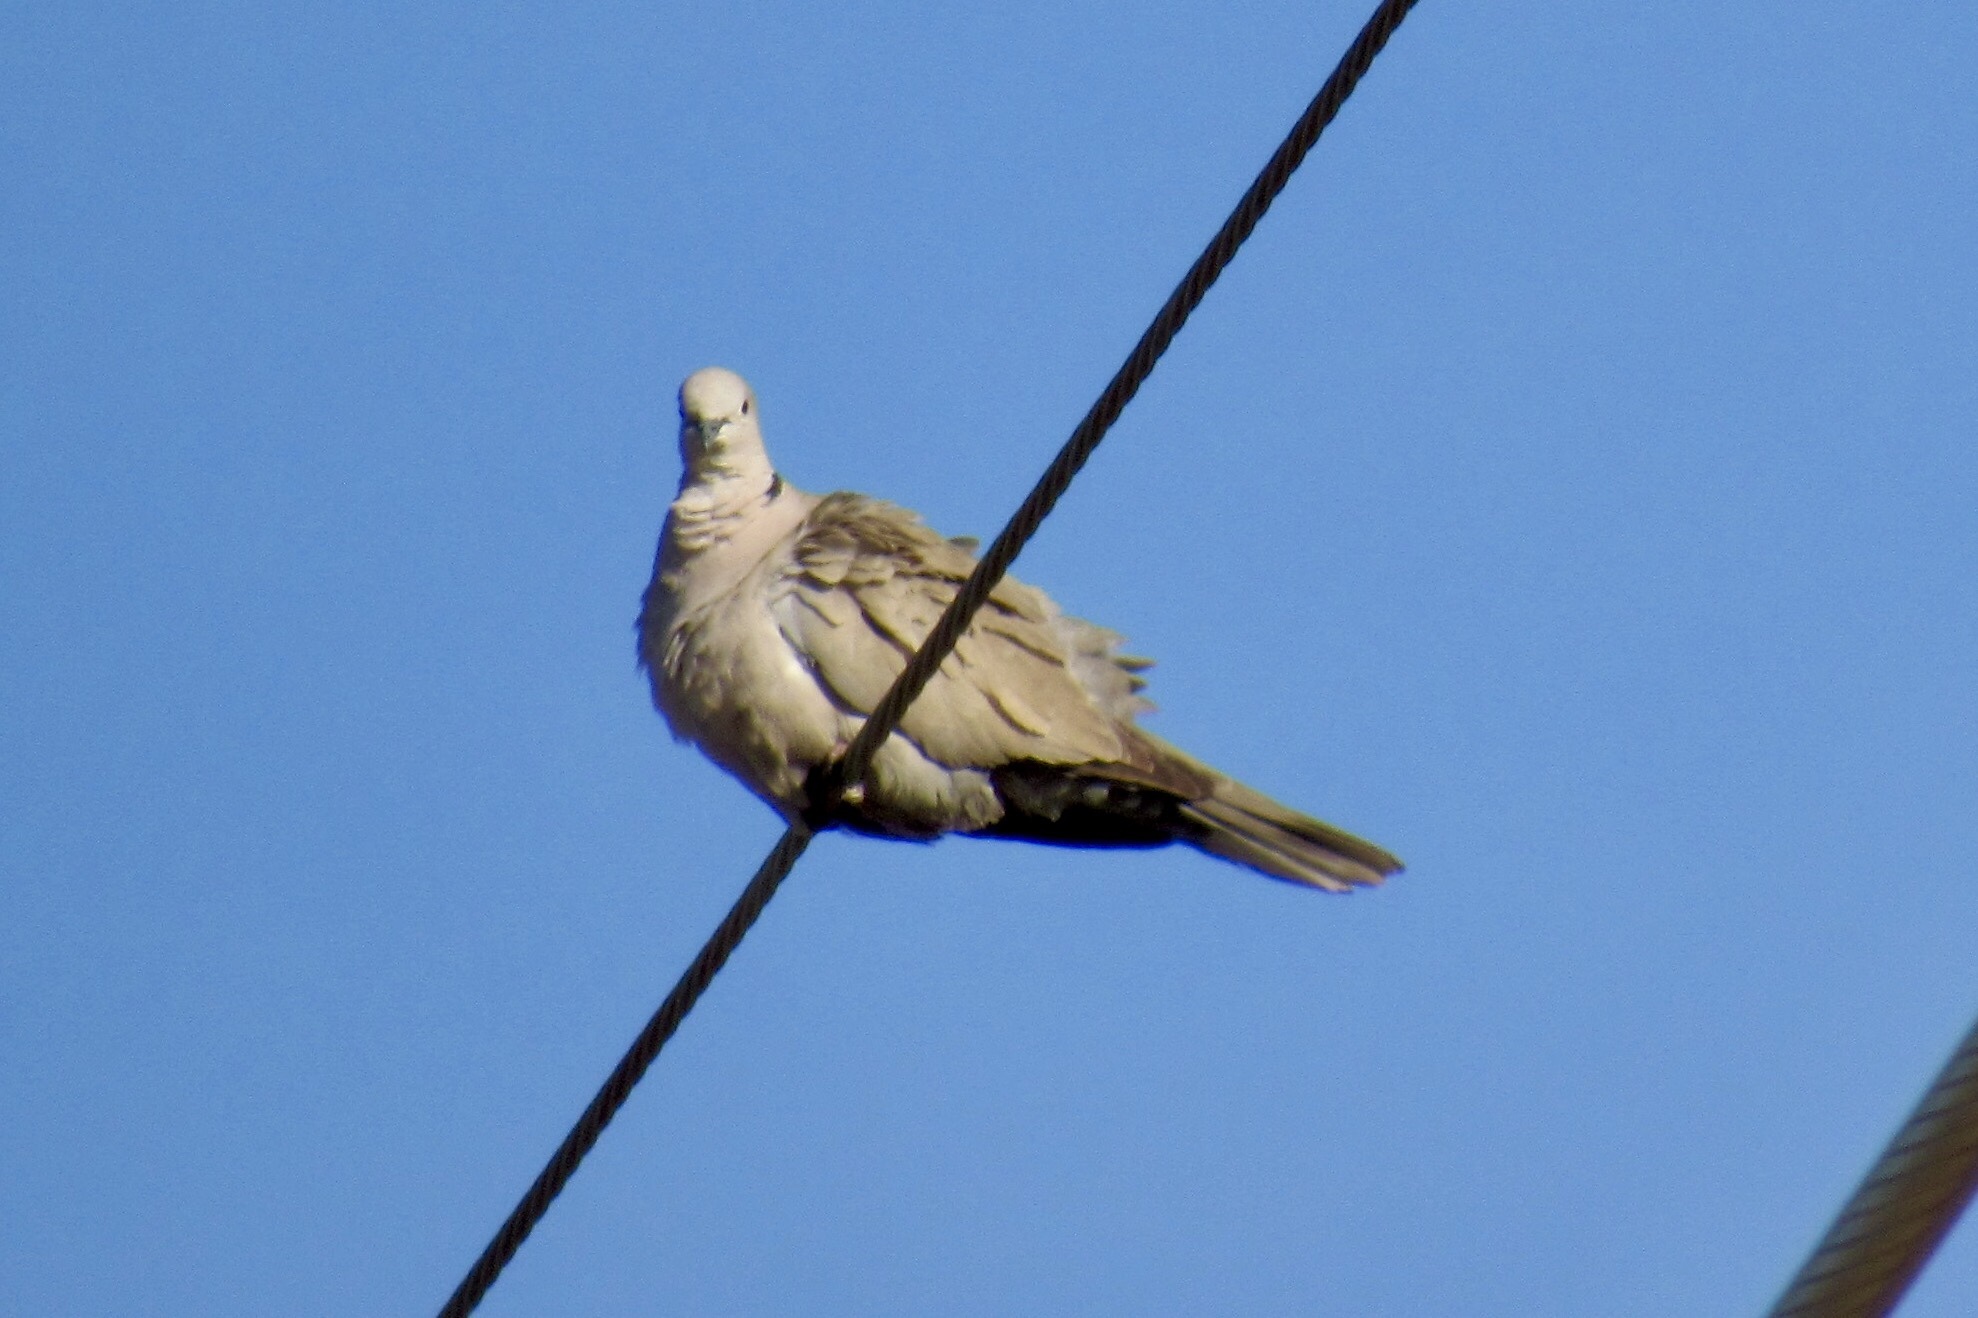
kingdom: Animalia
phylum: Chordata
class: Aves
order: Columbiformes
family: Columbidae
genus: Streptopelia
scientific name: Streptopelia decaocto
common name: Eurasian collared dove
